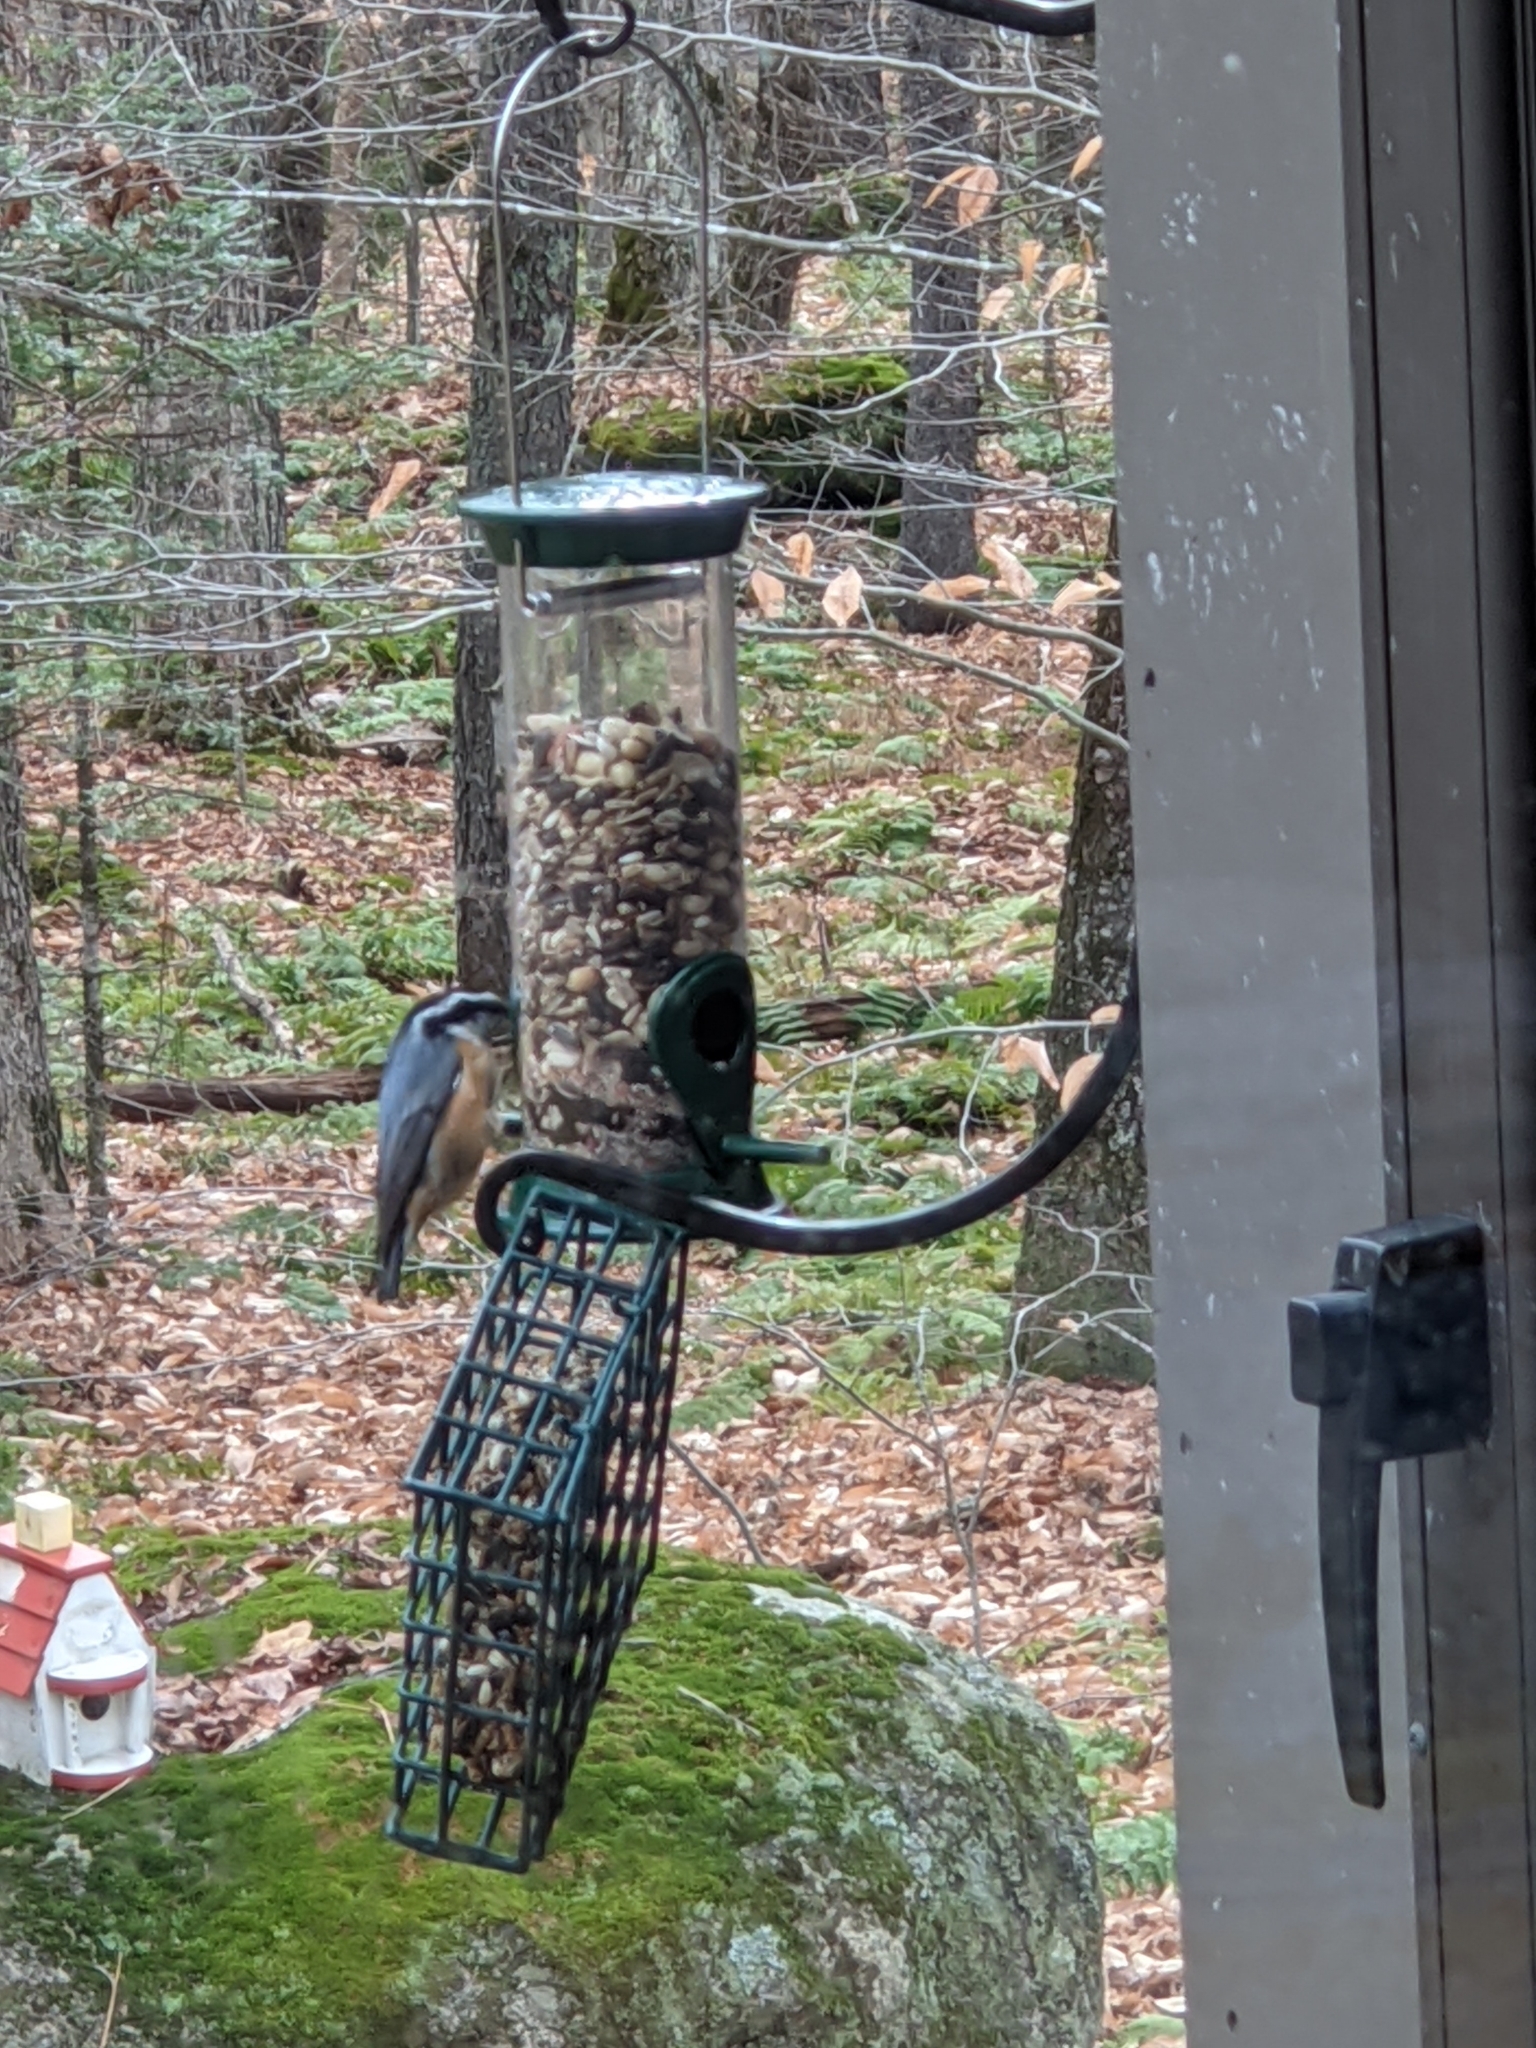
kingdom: Animalia
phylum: Chordata
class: Aves
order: Passeriformes
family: Sittidae
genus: Sitta
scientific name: Sitta canadensis
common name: Red-breasted nuthatch
